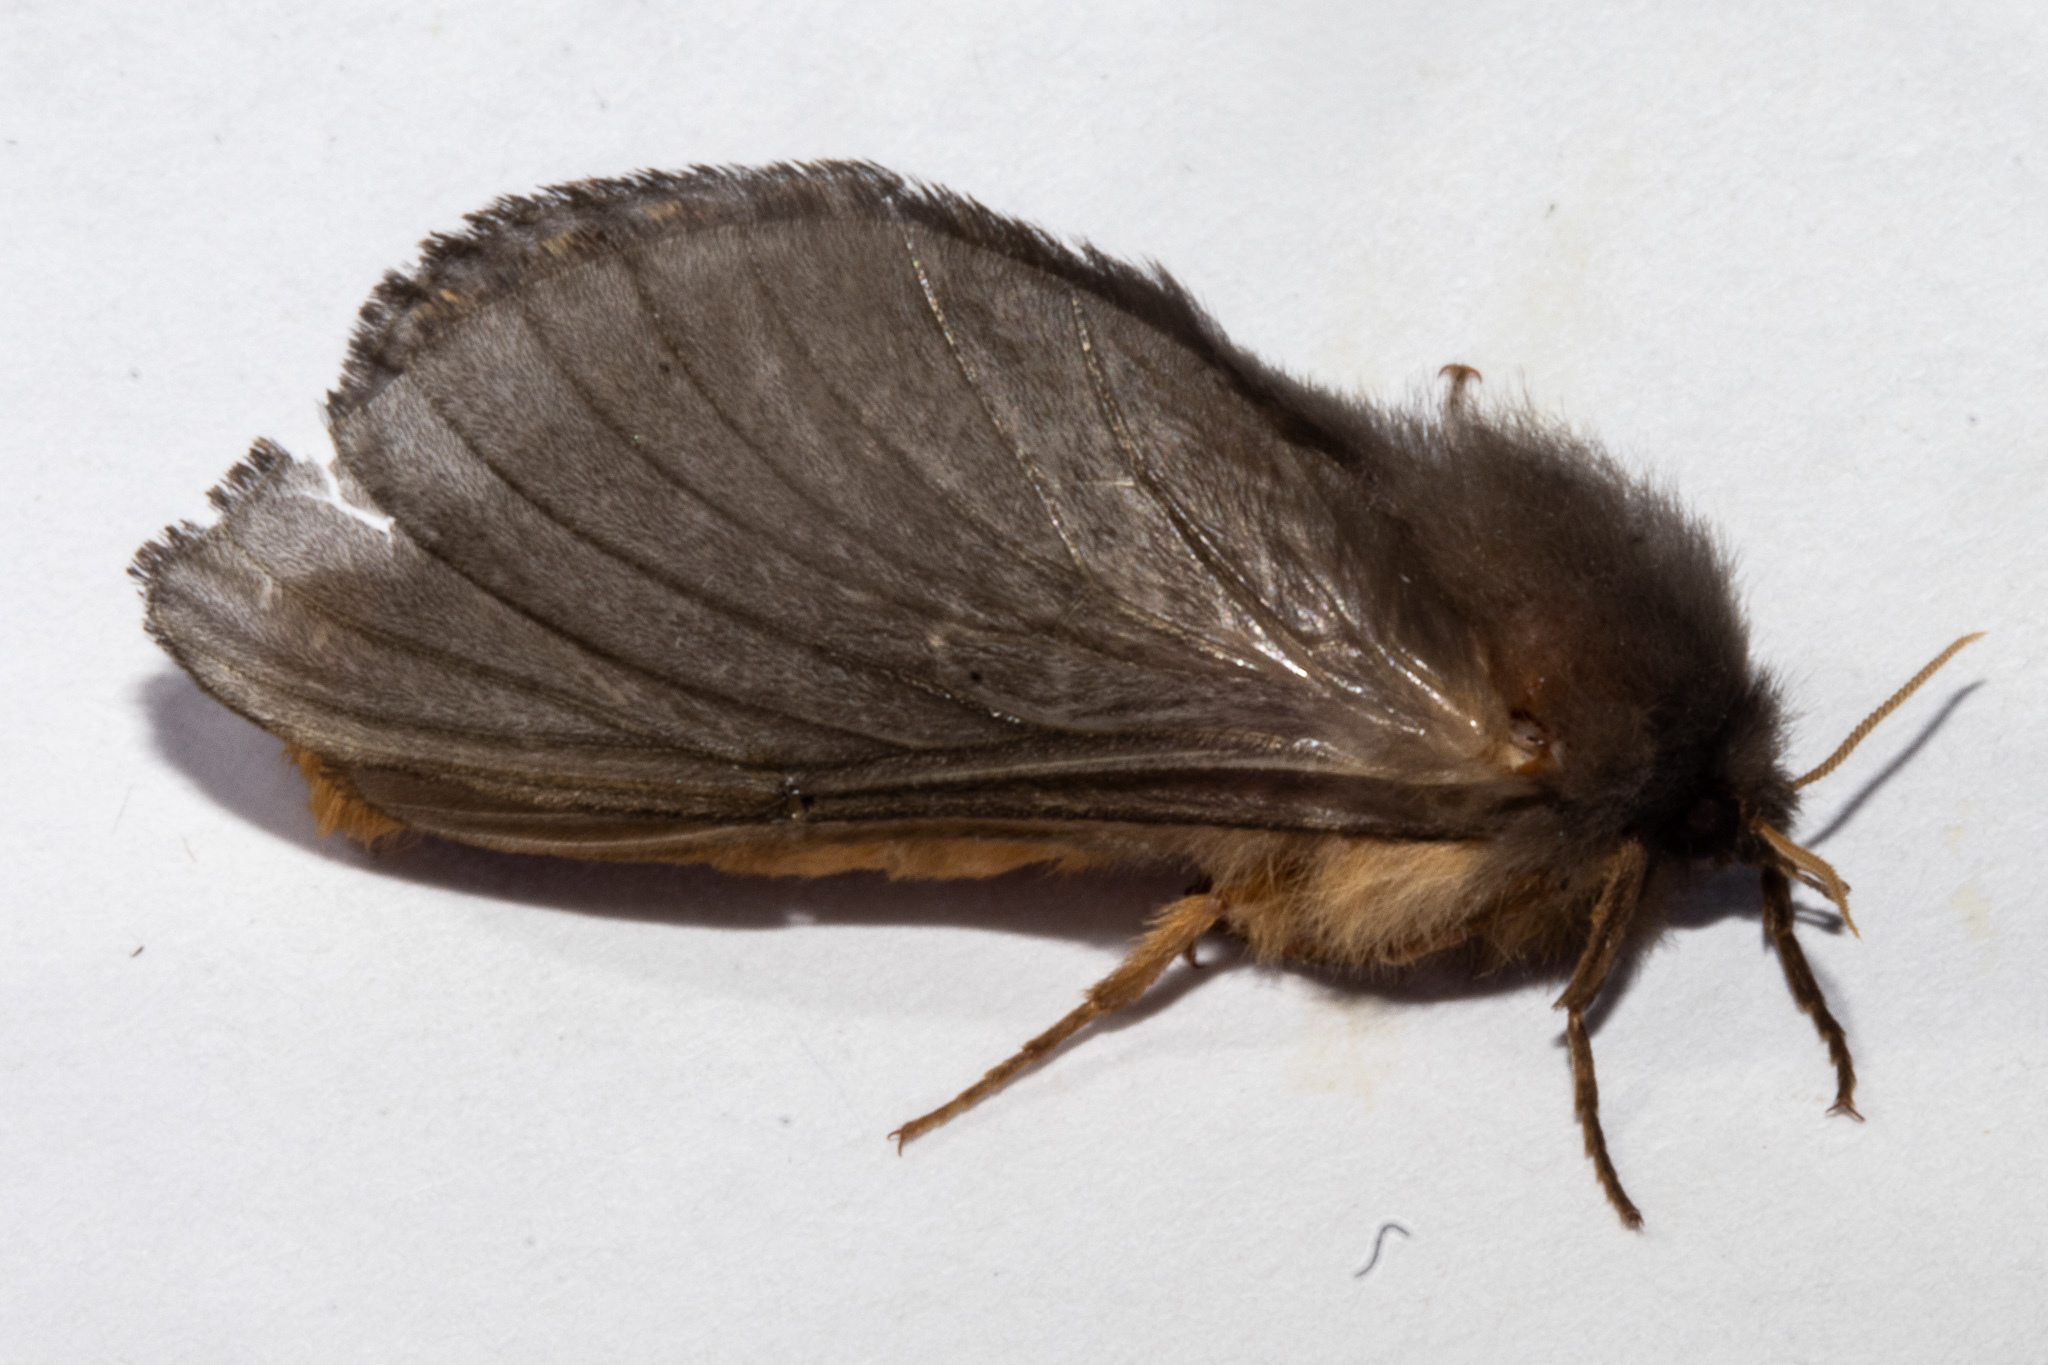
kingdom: Animalia
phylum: Arthropoda
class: Insecta
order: Lepidoptera
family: Hepialidae
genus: Cladoxycanus
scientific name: Cladoxycanus minos
